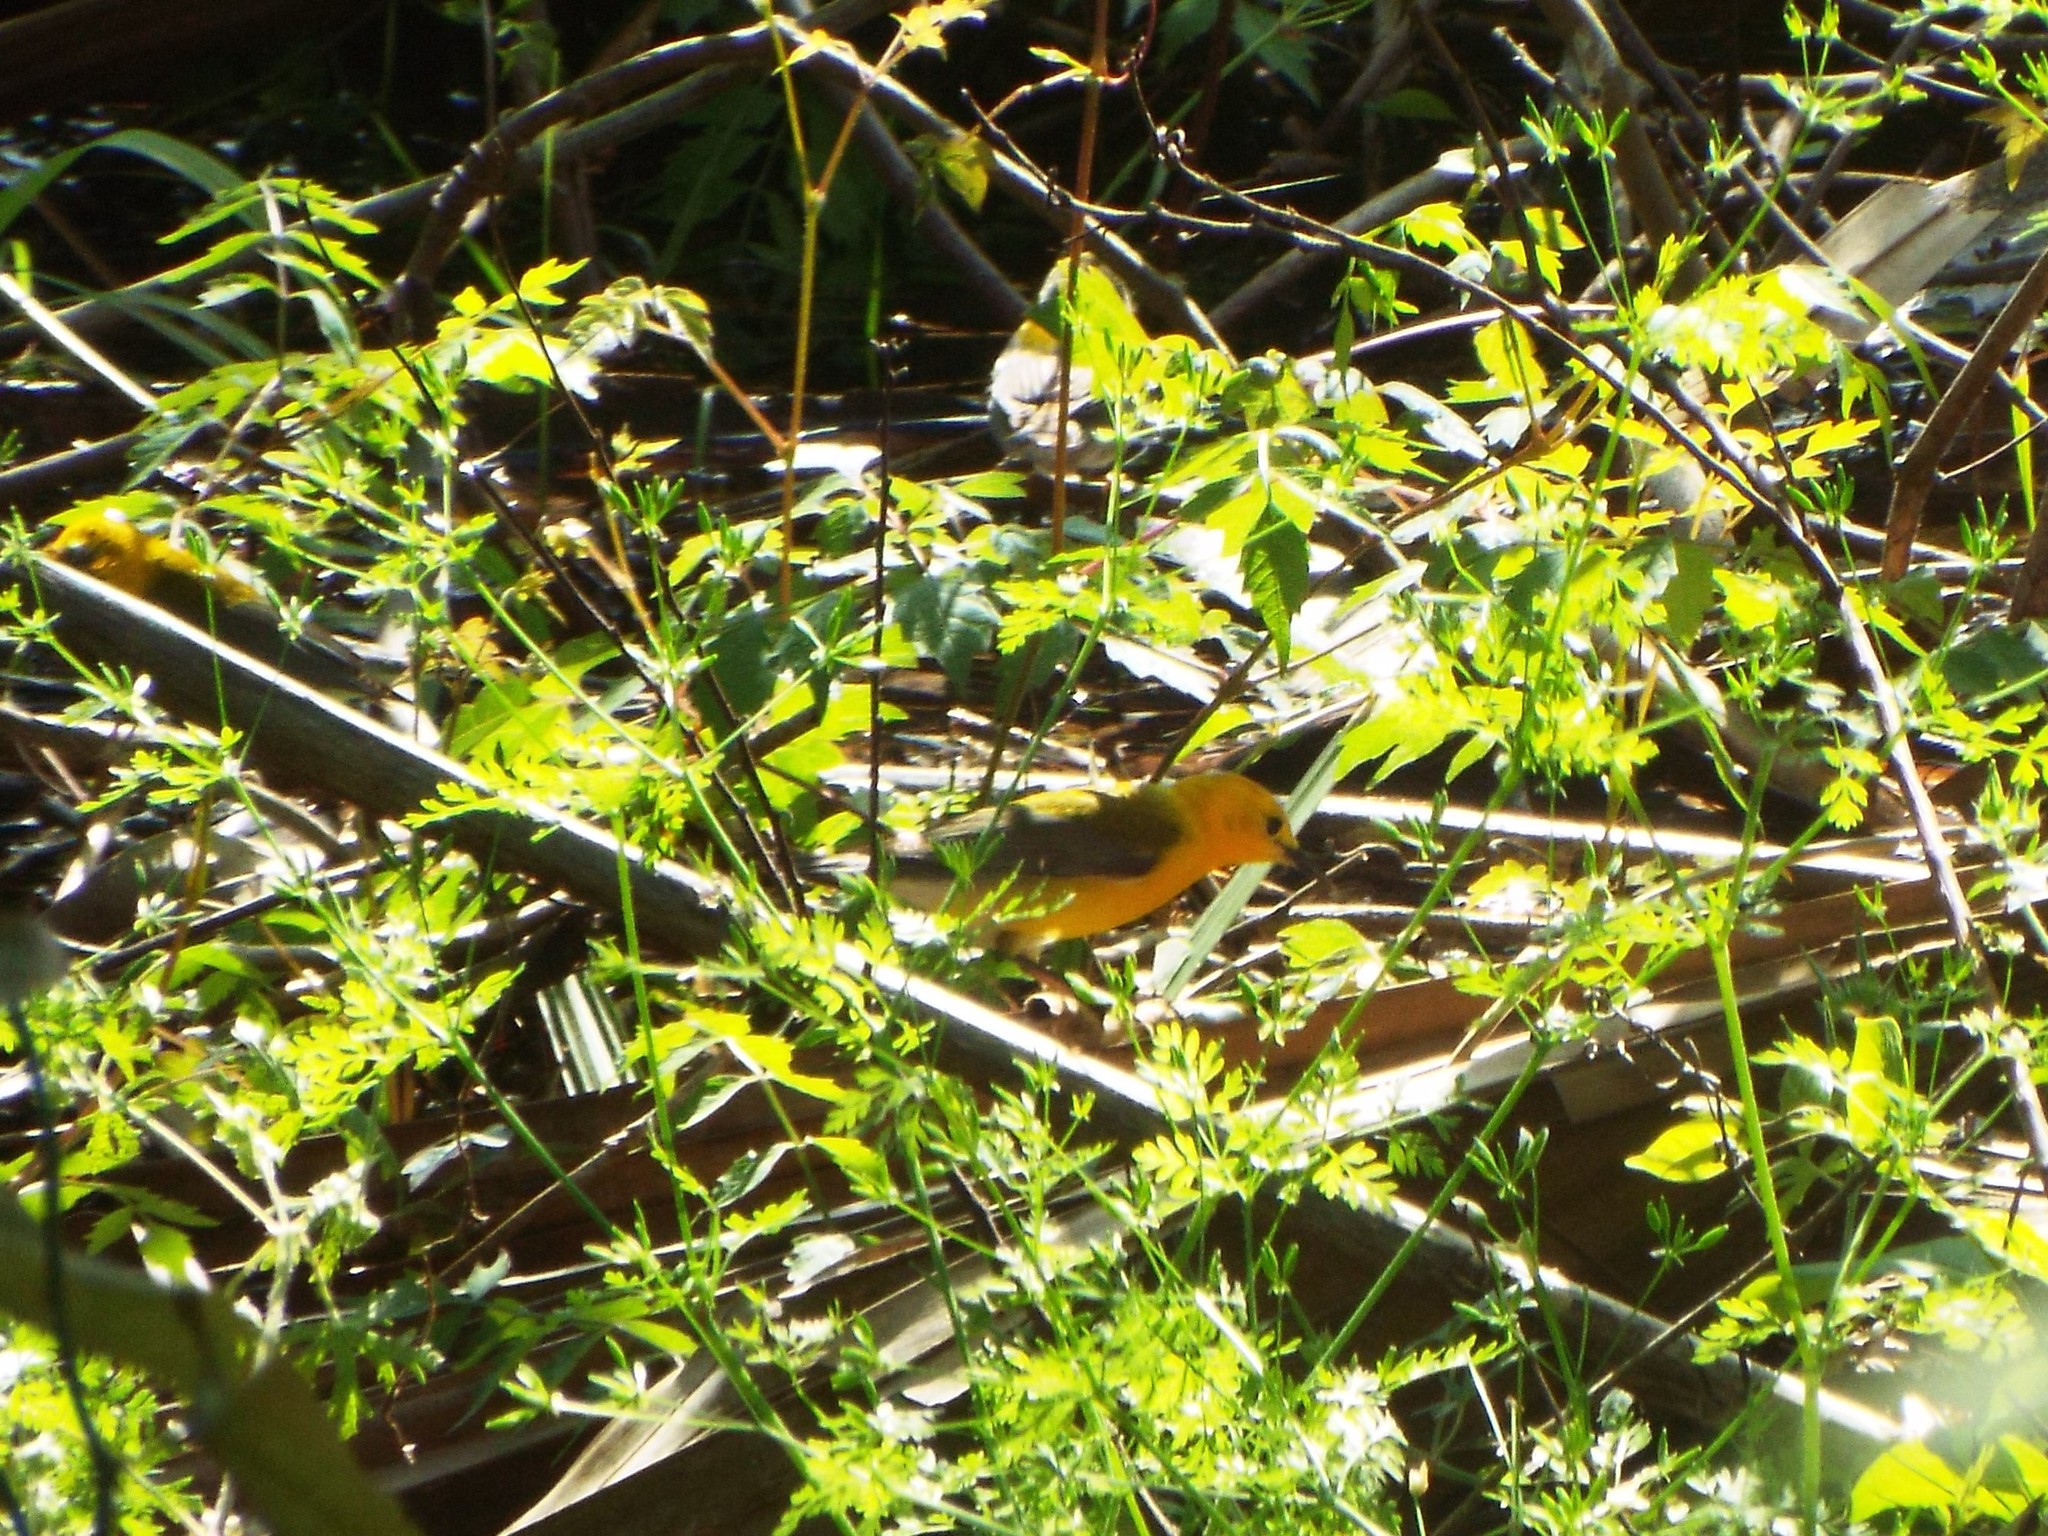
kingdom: Animalia
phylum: Chordata
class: Aves
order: Passeriformes
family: Parulidae
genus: Protonotaria
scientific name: Protonotaria citrea
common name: Prothonotary warbler
